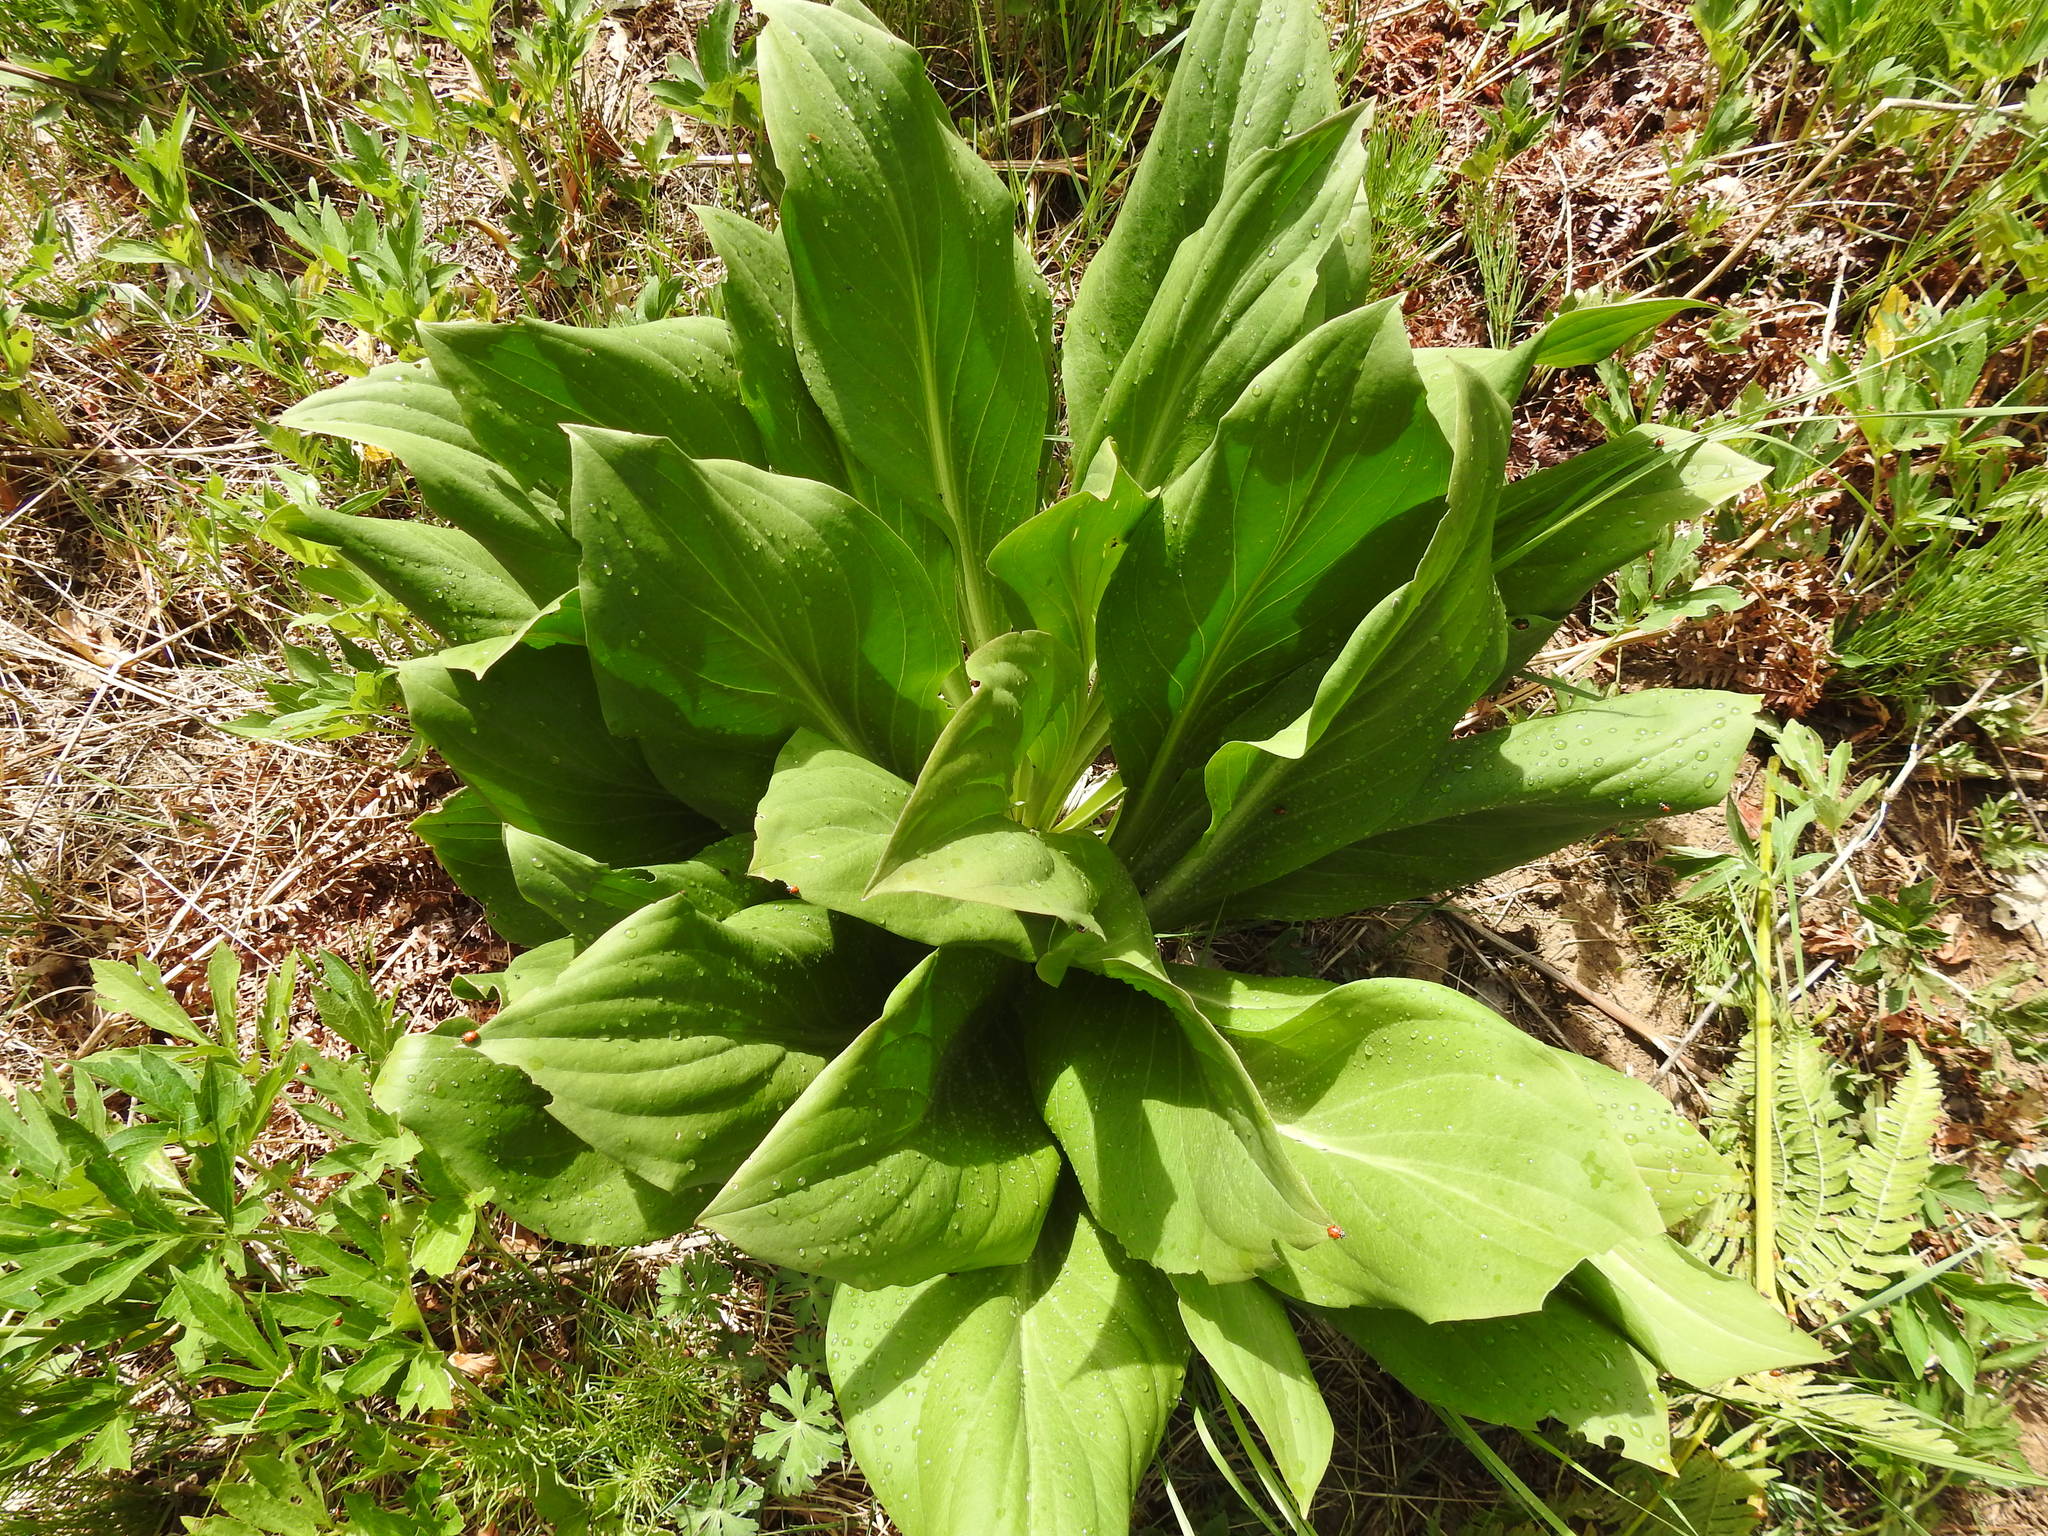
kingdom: Plantae
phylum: Tracheophyta
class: Magnoliopsida
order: Gentianales
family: Gentianaceae
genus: Frasera
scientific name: Frasera speciosa
